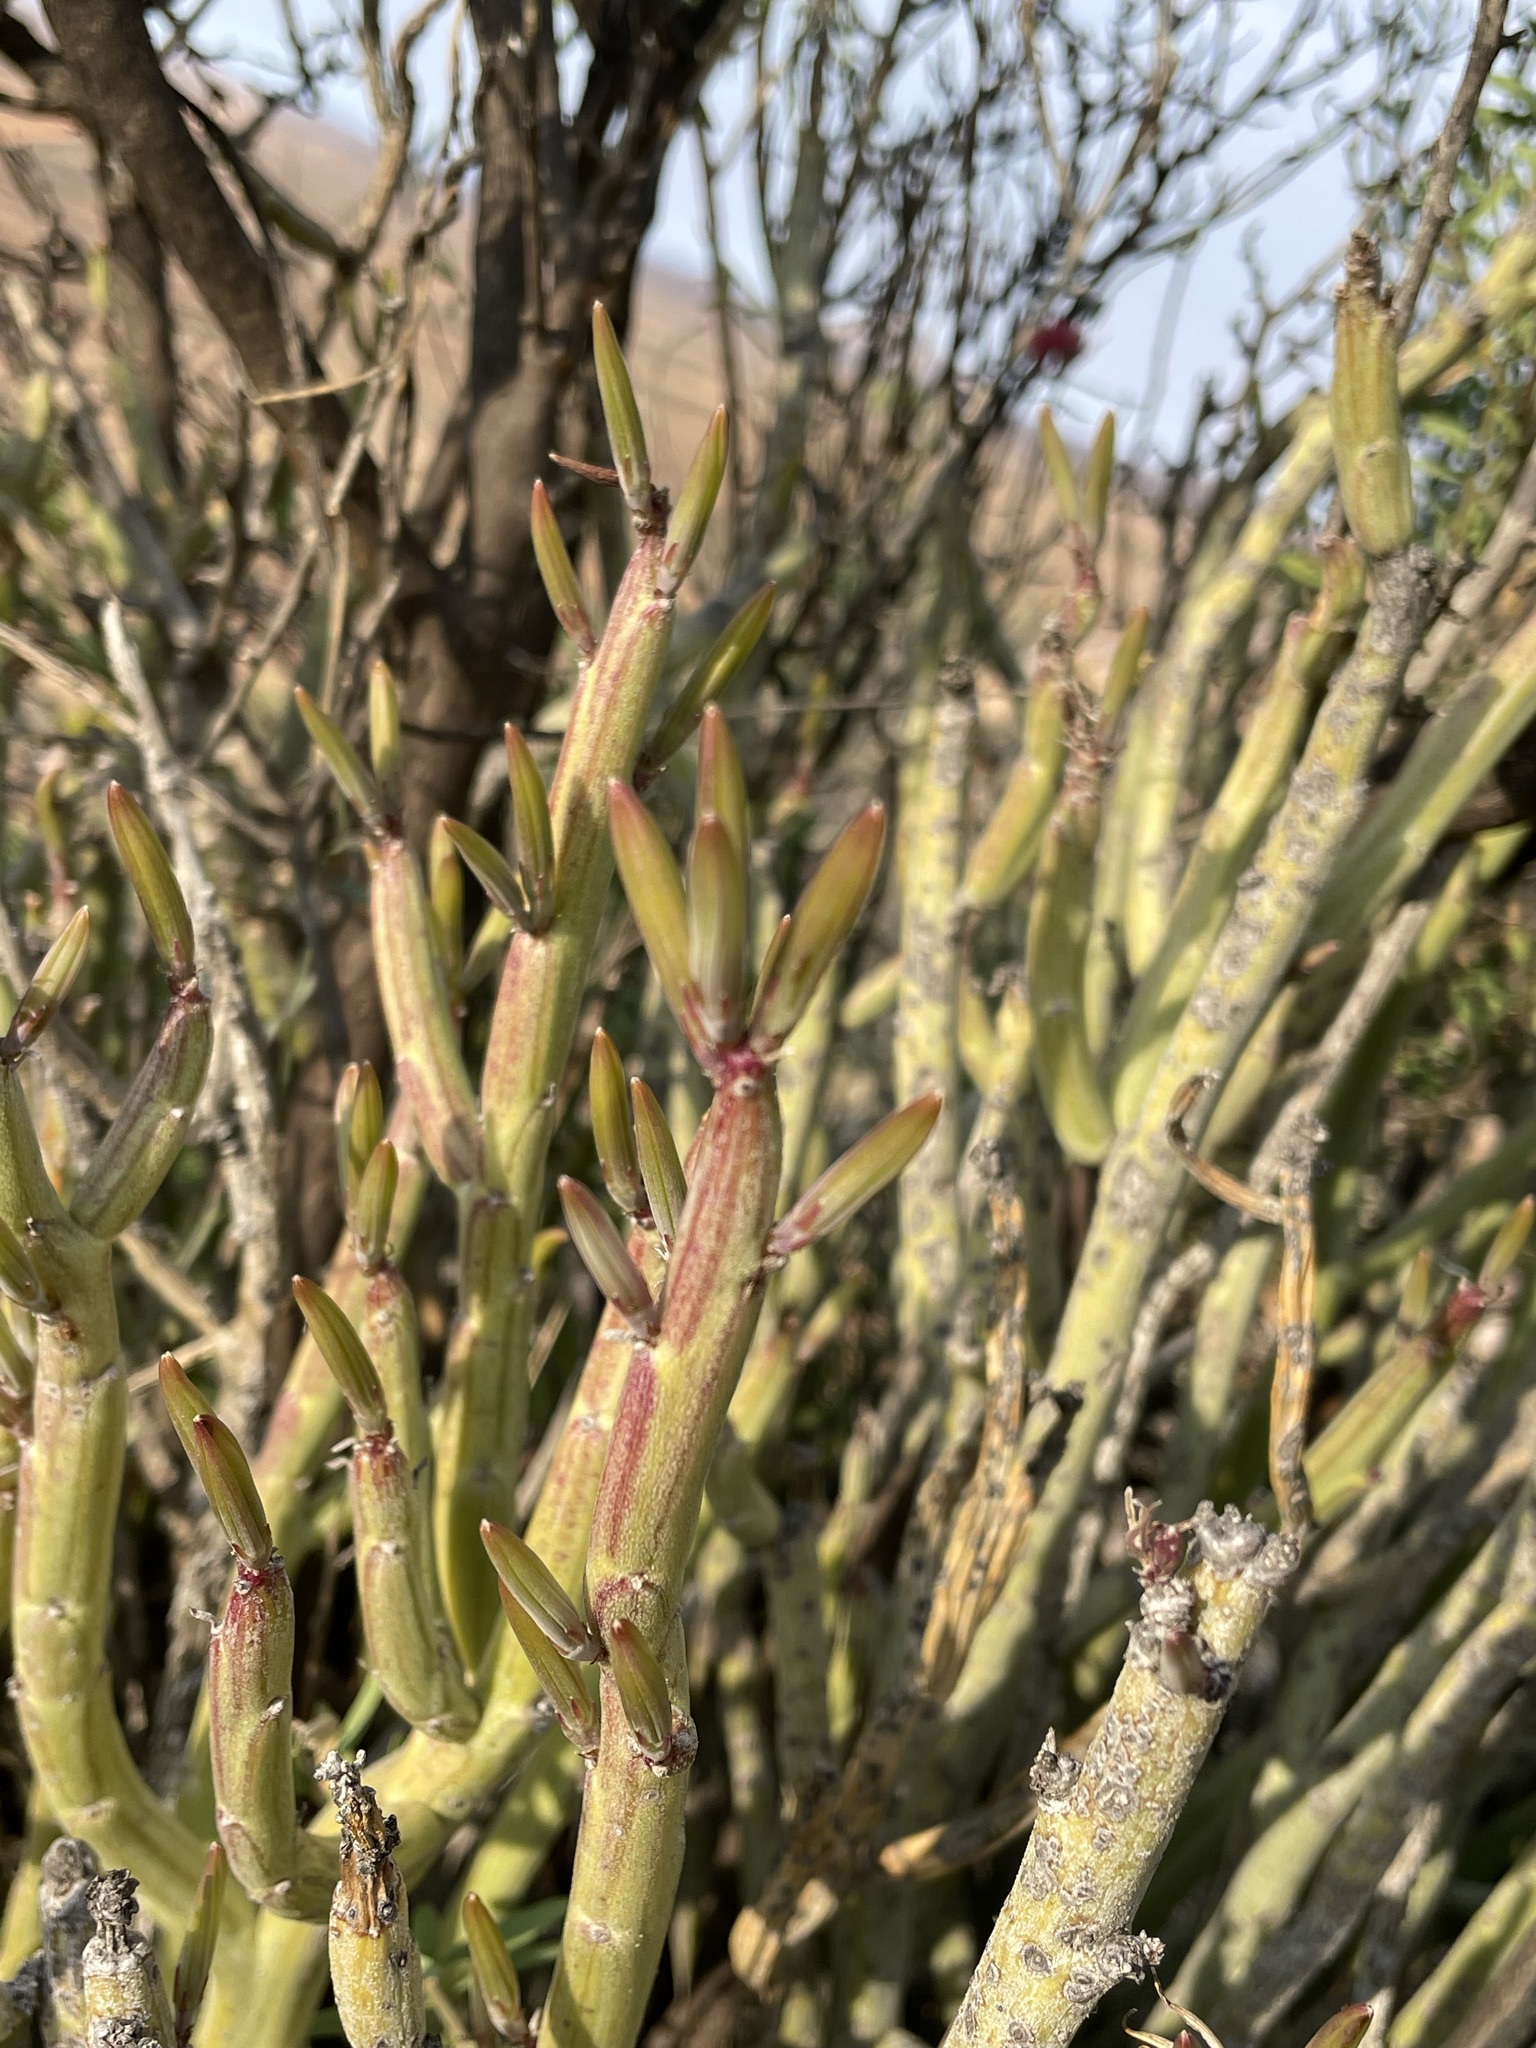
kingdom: Plantae
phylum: Tracheophyta
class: Magnoliopsida
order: Asterales
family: Asteraceae
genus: Curio
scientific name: Curio avasimontanus
